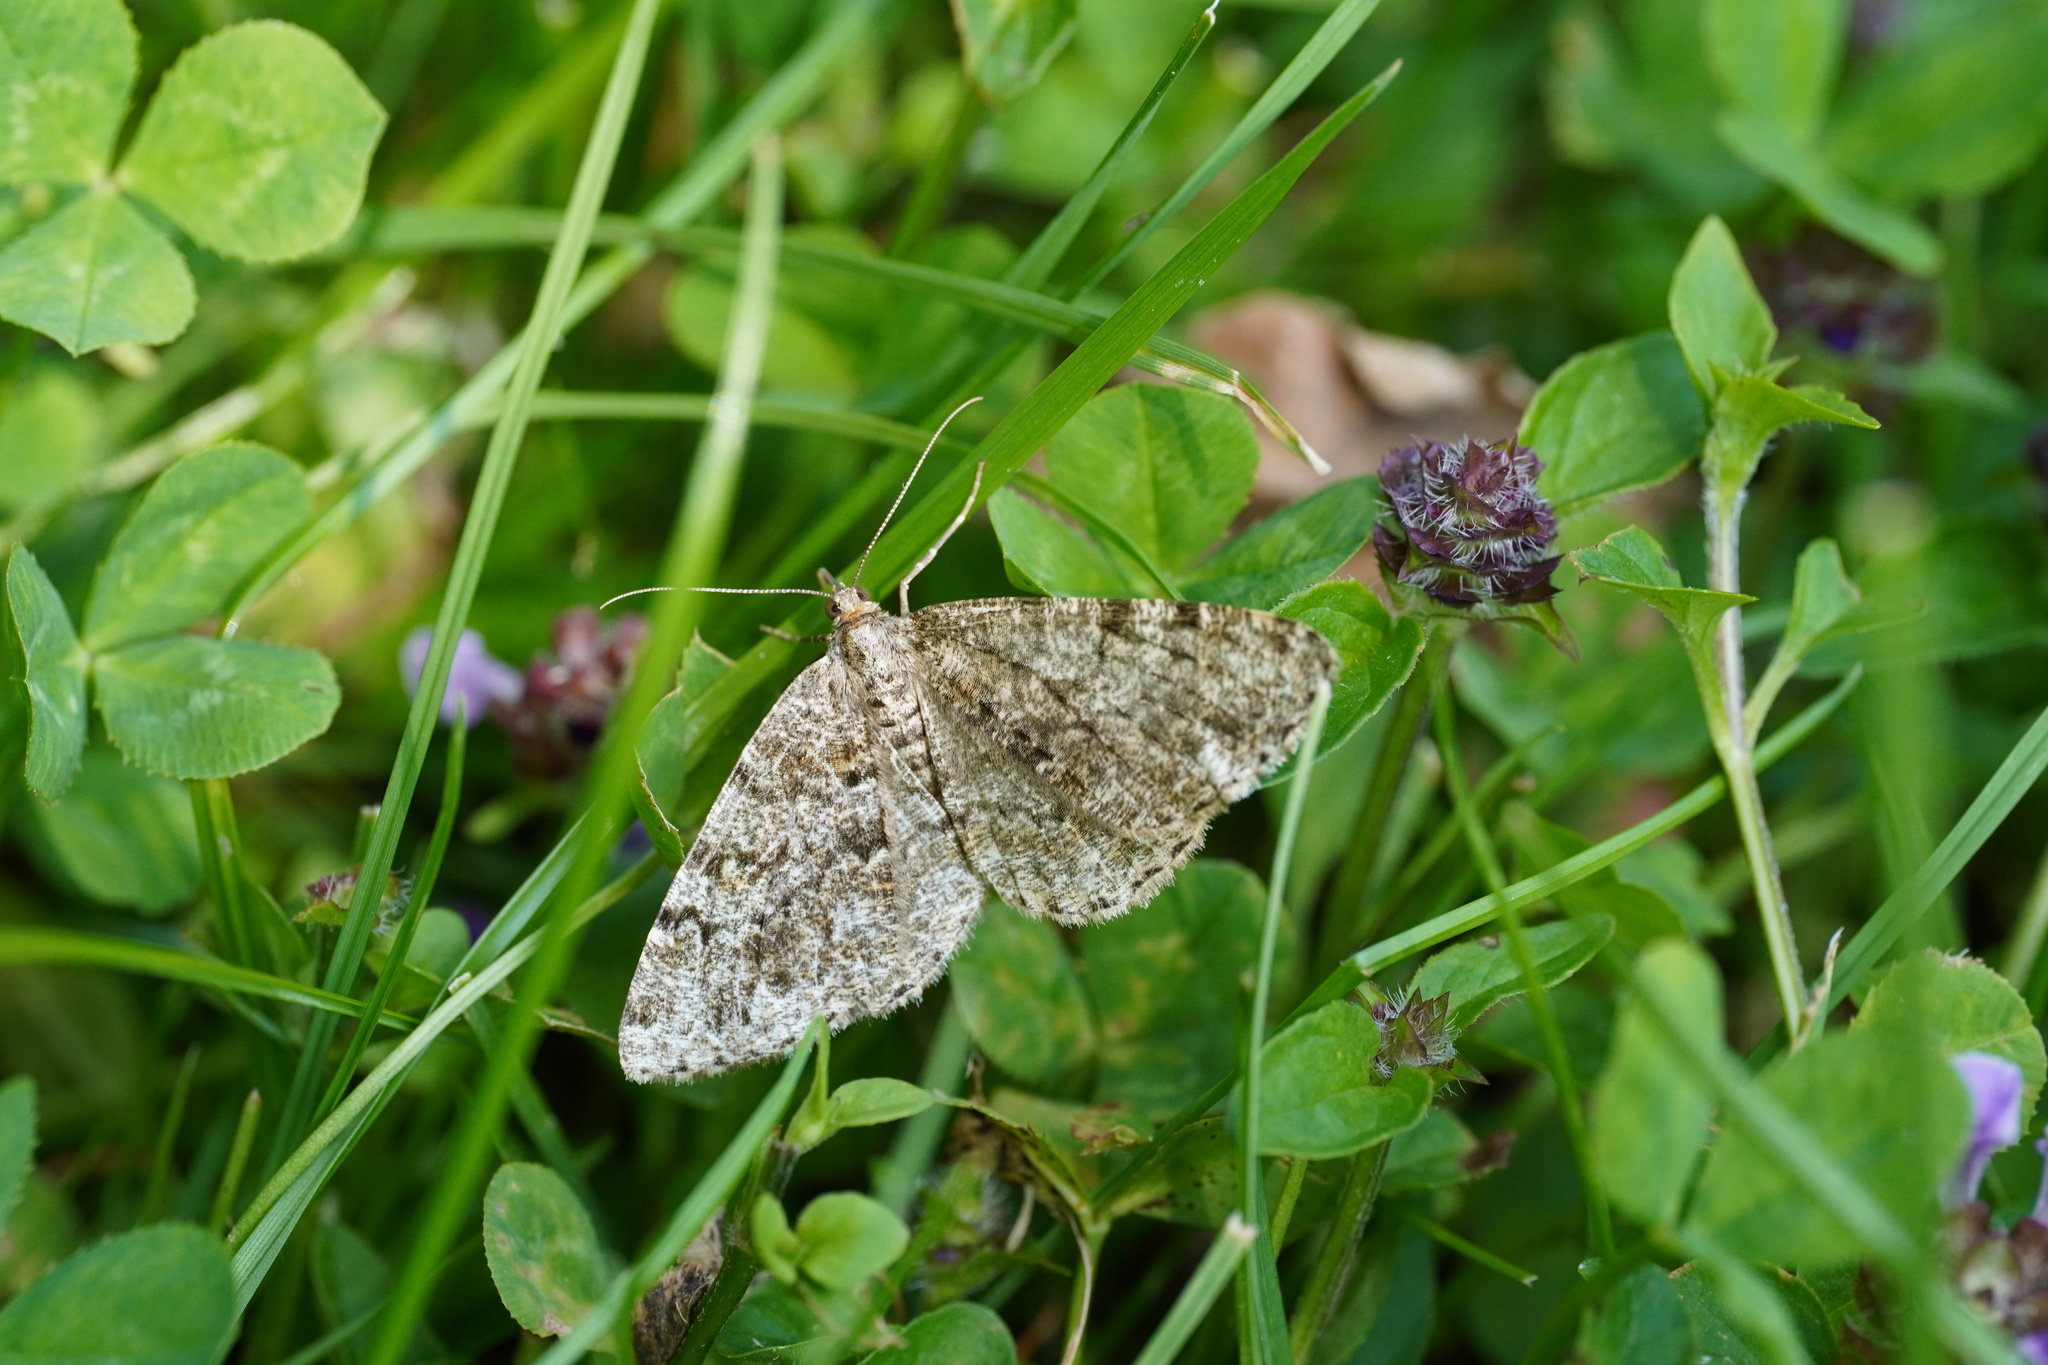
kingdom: Animalia
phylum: Arthropoda
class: Insecta
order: Lepidoptera
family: Geometridae
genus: Peribatodes
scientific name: Peribatodes secundaria
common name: Feathered beauty
